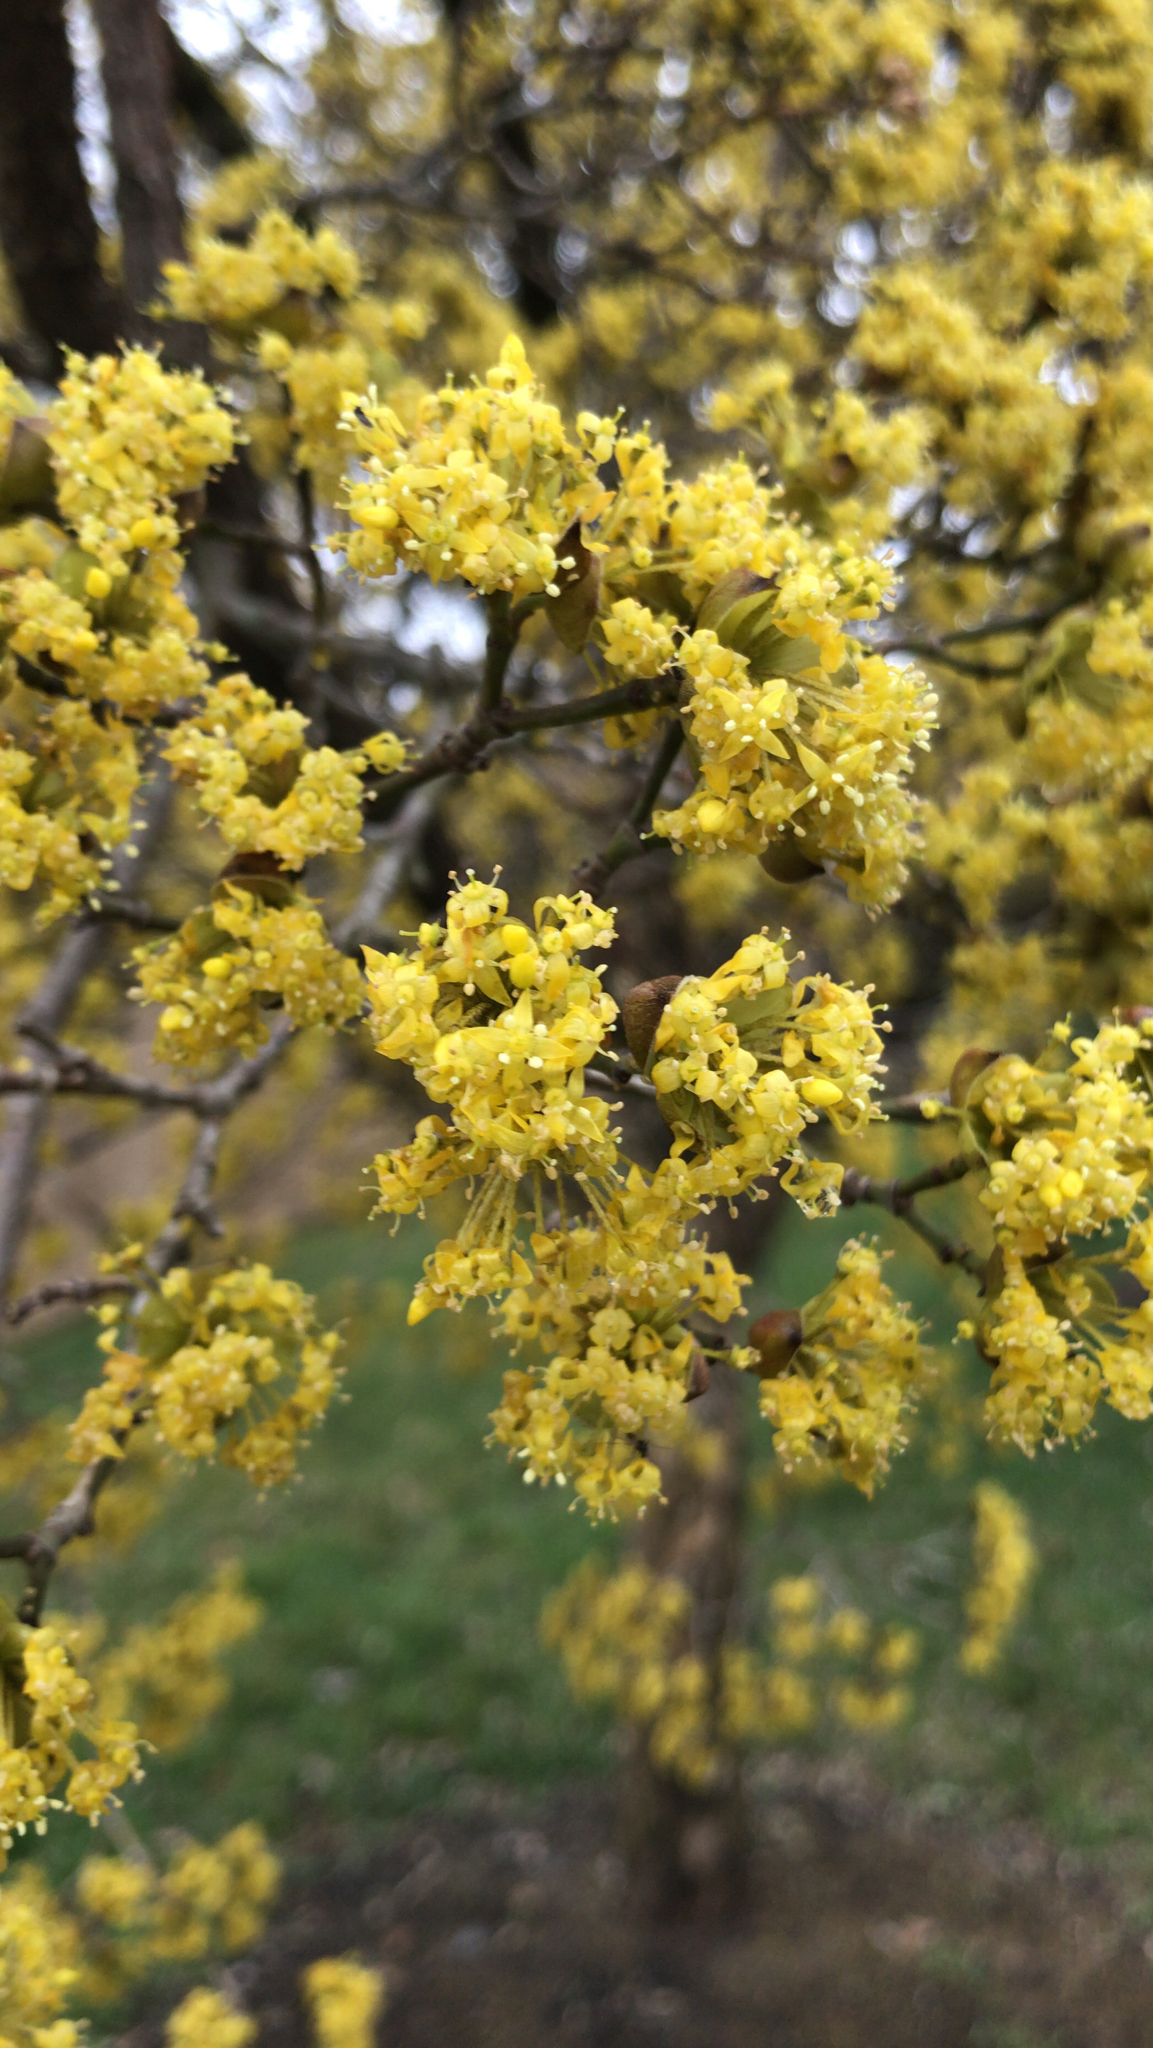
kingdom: Plantae
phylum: Tracheophyta
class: Magnoliopsida
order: Cornales
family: Cornaceae
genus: Cornus
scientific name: Cornus mas
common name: Cornelian-cherry
